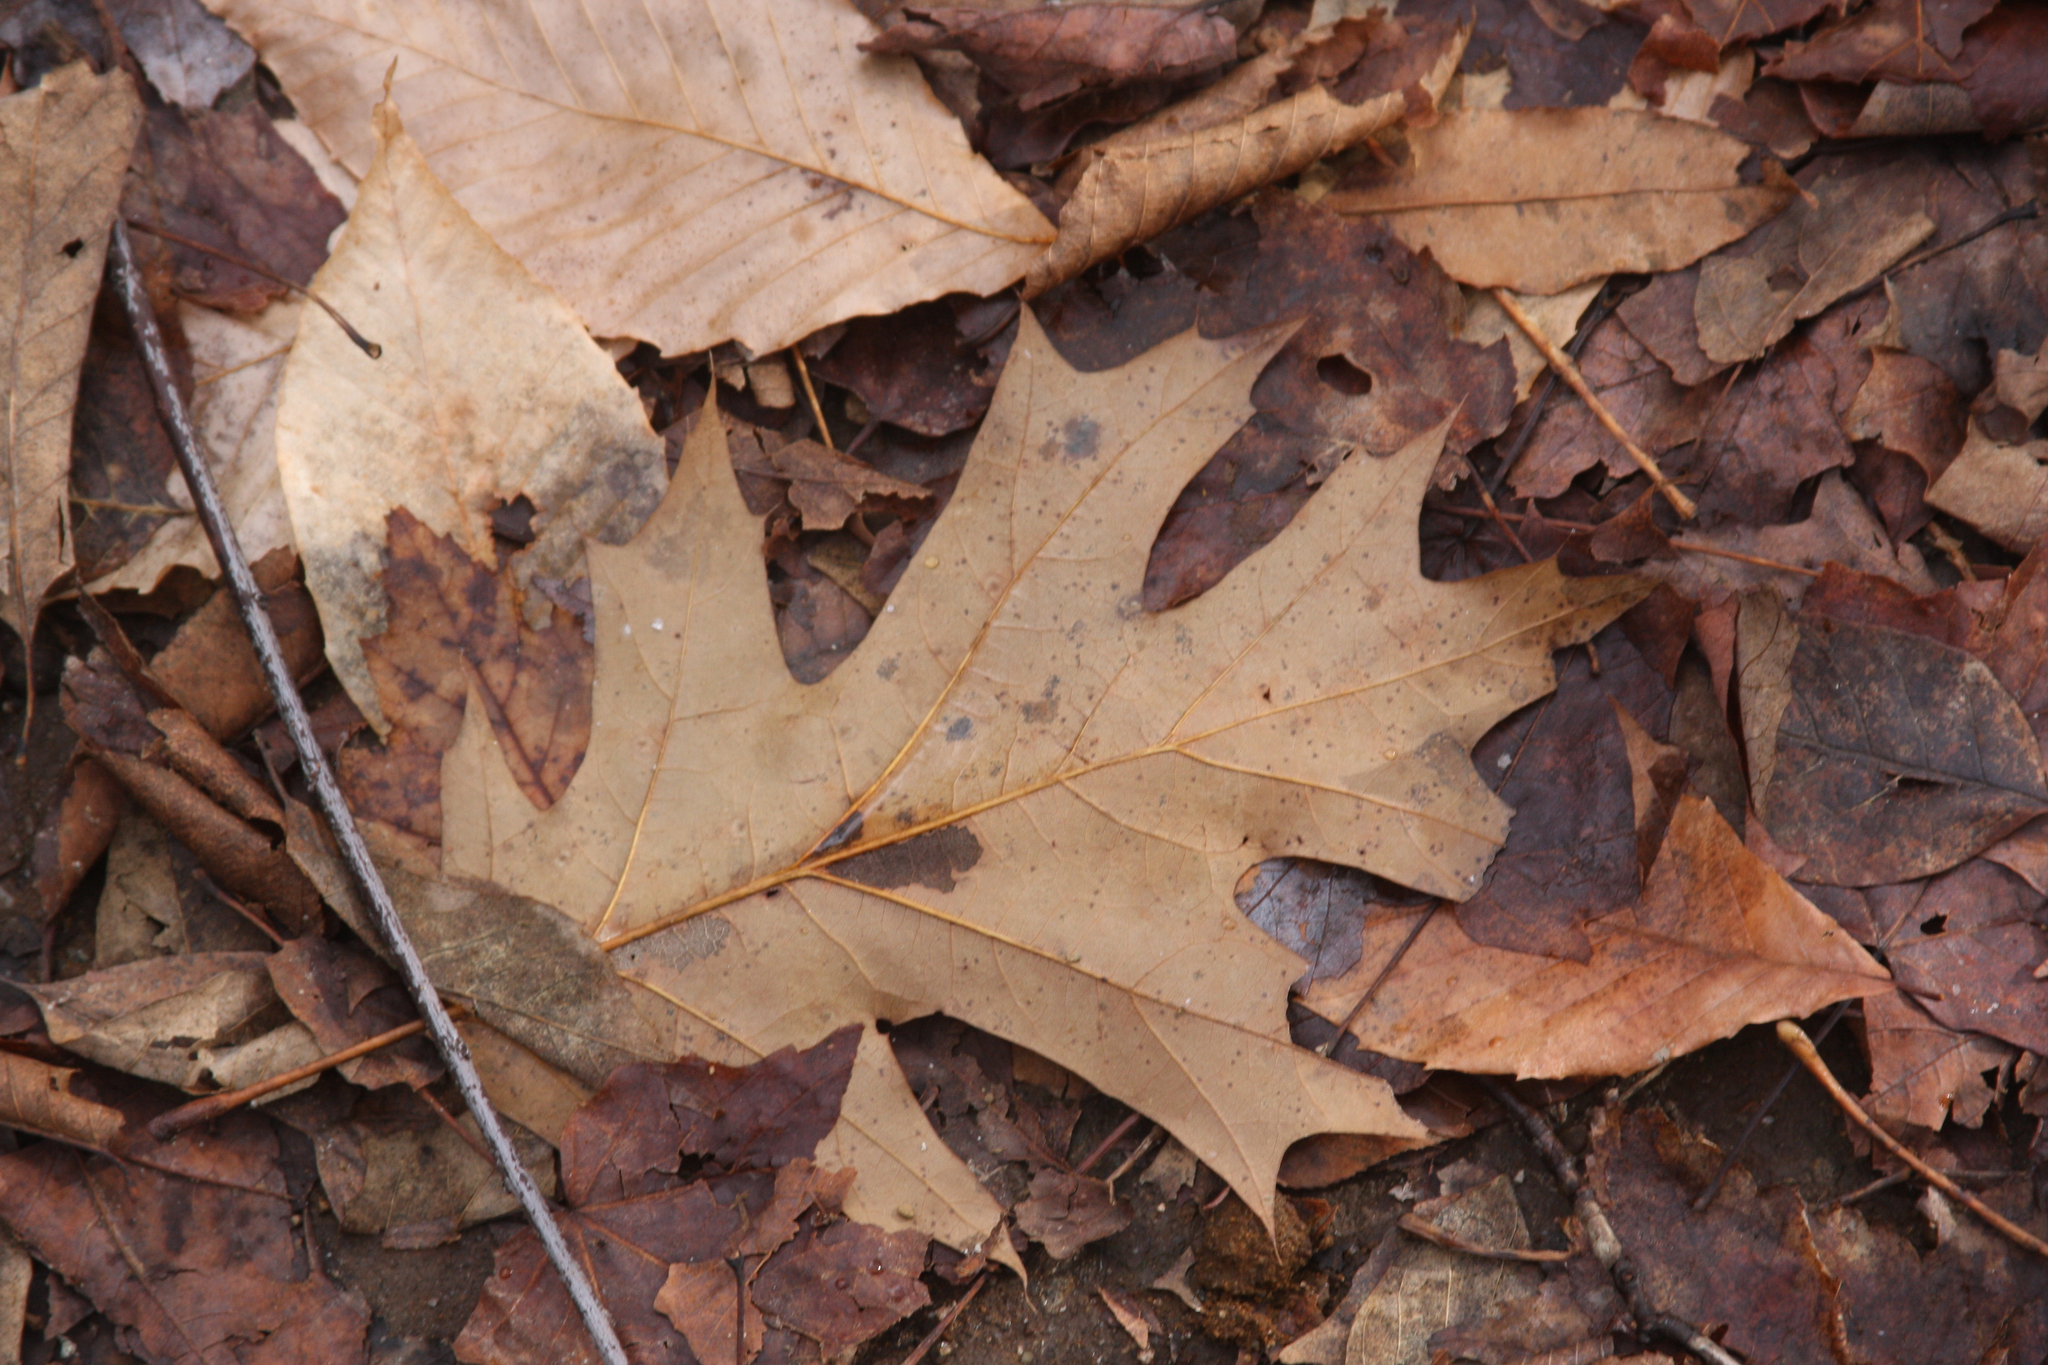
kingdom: Plantae
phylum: Tracheophyta
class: Magnoliopsida
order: Fagales
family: Fagaceae
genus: Quercus
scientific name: Quercus rubra
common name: Red oak
